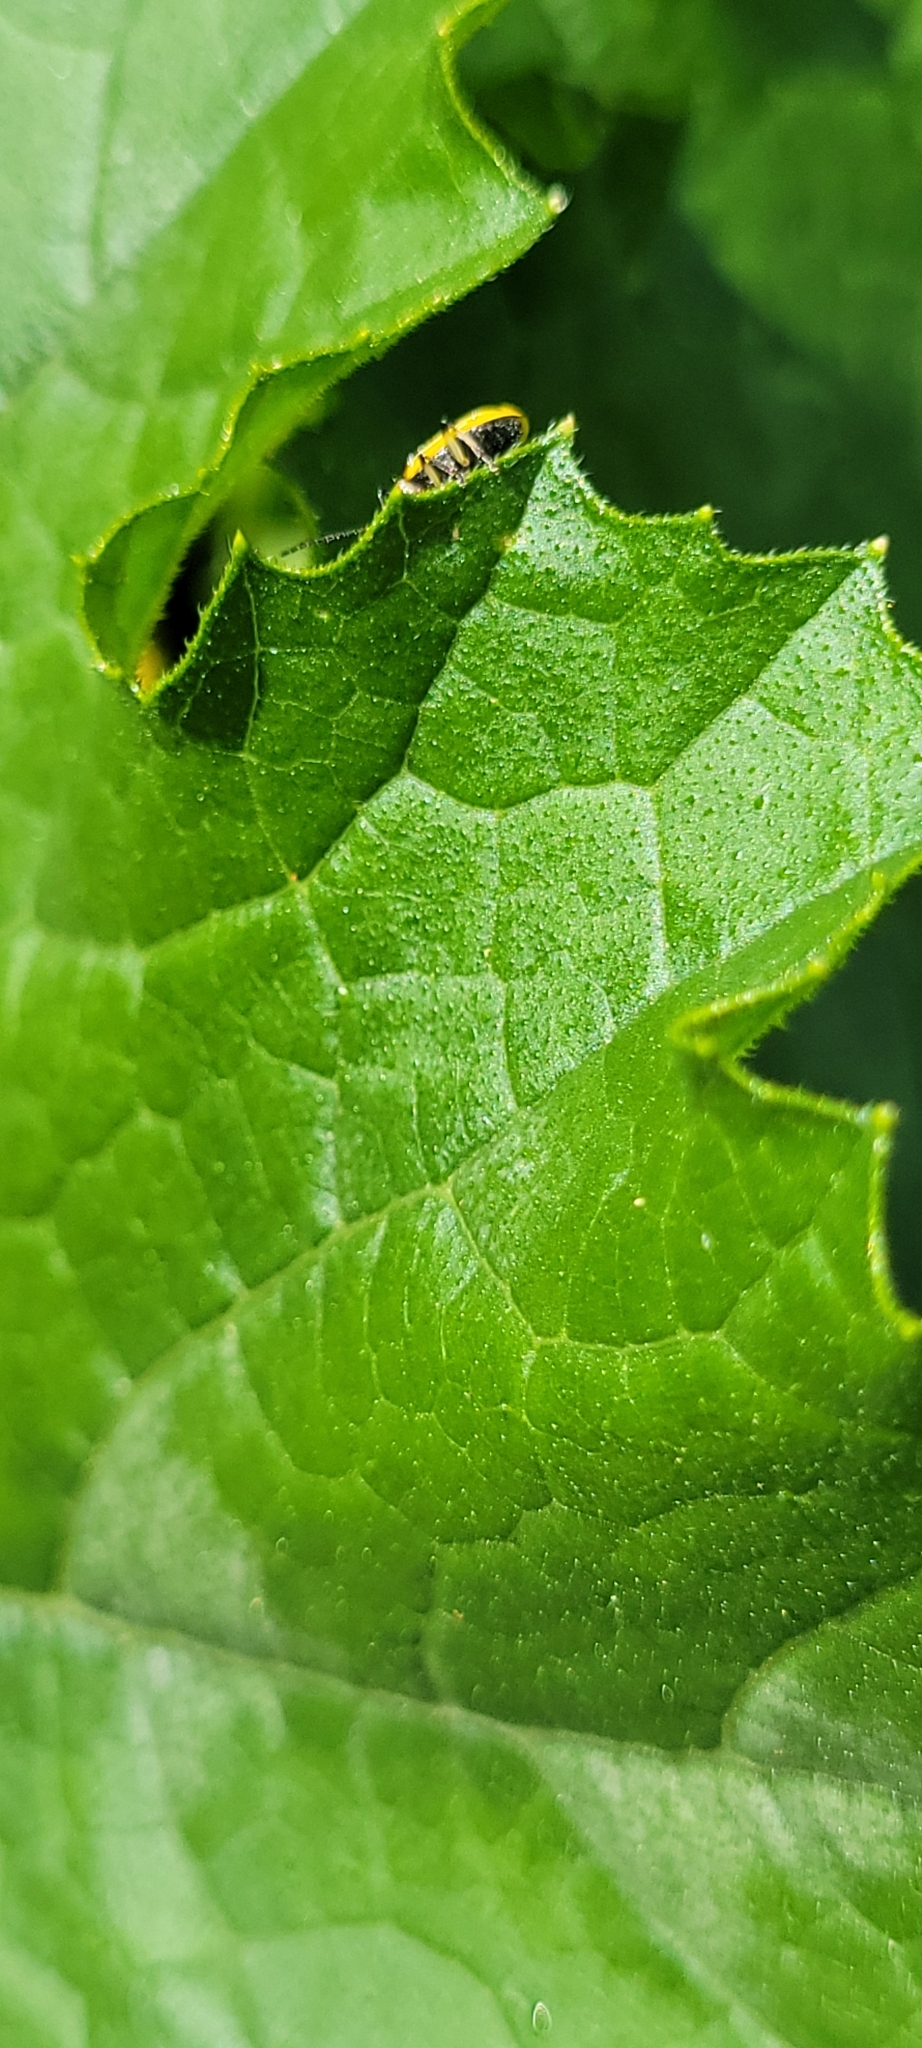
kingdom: Animalia
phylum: Arthropoda
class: Insecta
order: Coleoptera
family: Chrysomelidae
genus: Acalymma
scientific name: Acalymma vittatum
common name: Striped cucumber beetle
